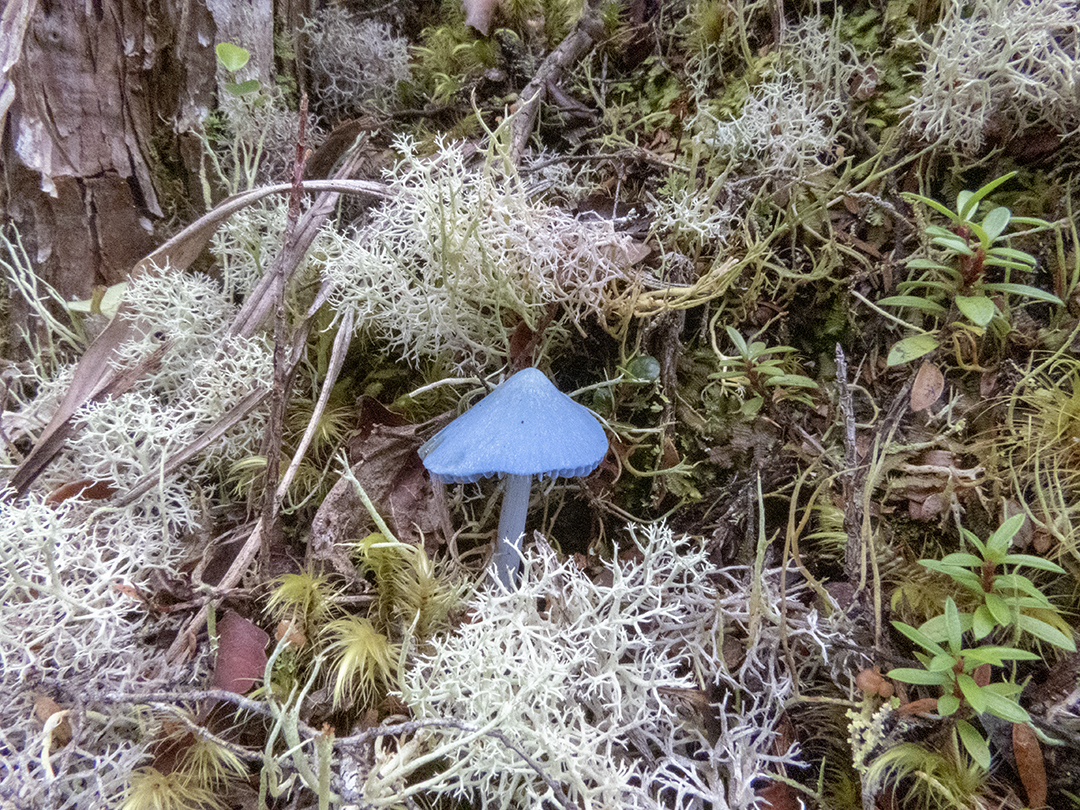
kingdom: Fungi
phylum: Basidiomycota
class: Agaricomycetes
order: Agaricales
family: Entolomataceae
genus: Entoloma
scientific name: Entoloma hochstetteri
